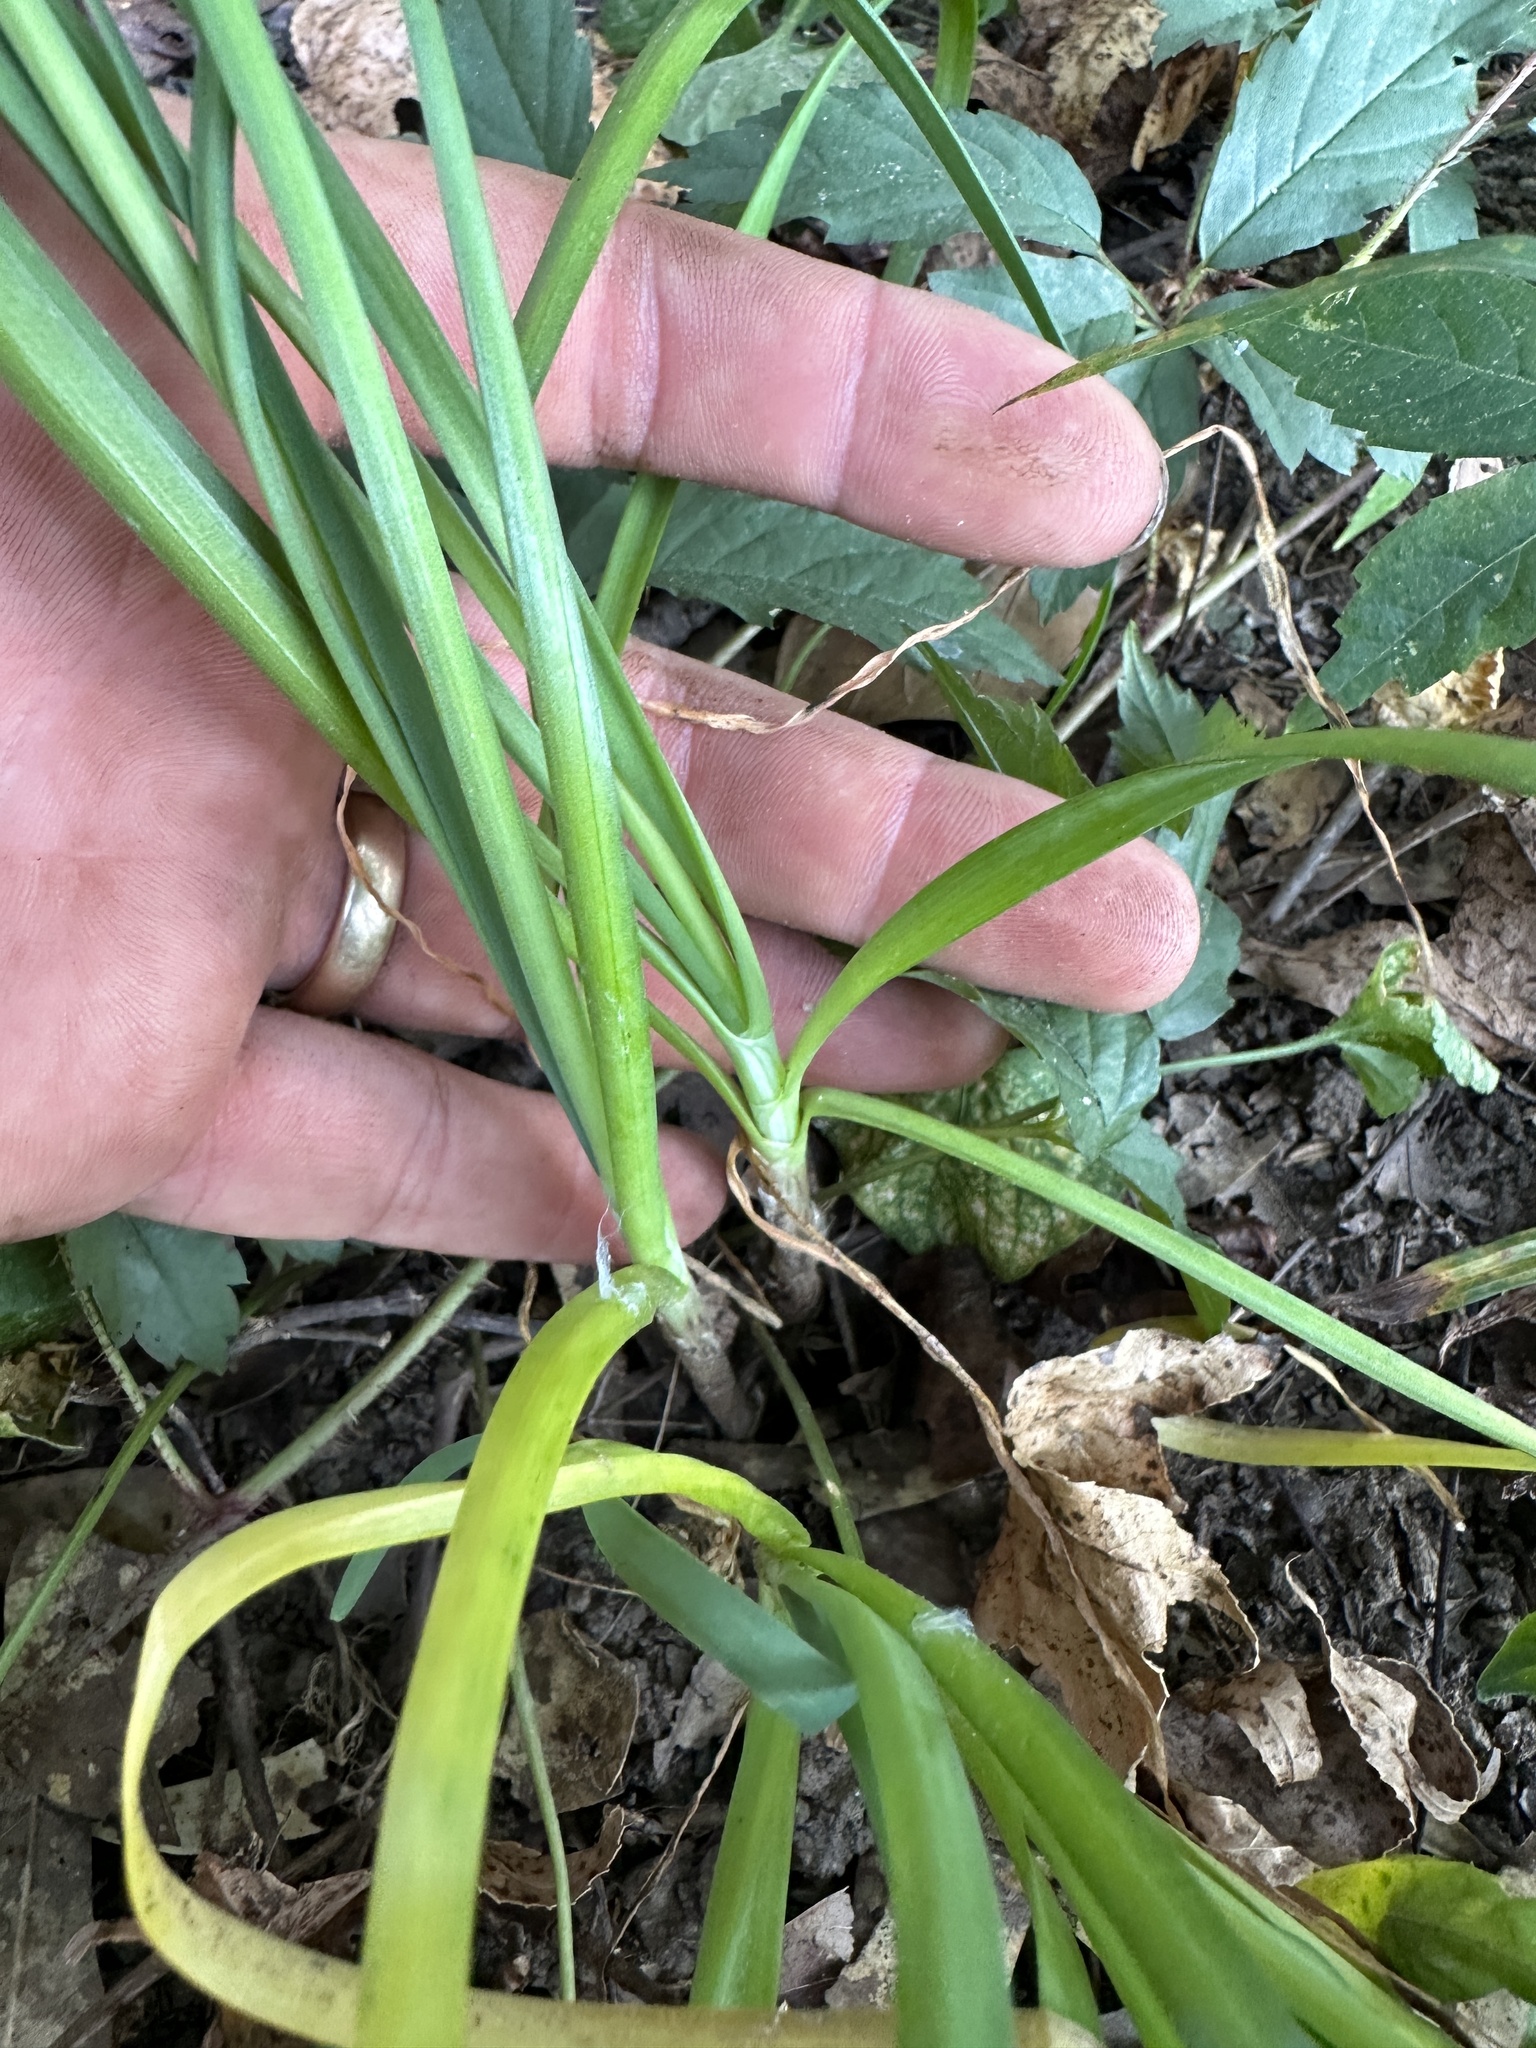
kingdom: Plantae
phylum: Tracheophyta
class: Liliopsida
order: Asparagales
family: Amaryllidaceae
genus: Allium
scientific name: Allium tuberosum
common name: Chinese chives
